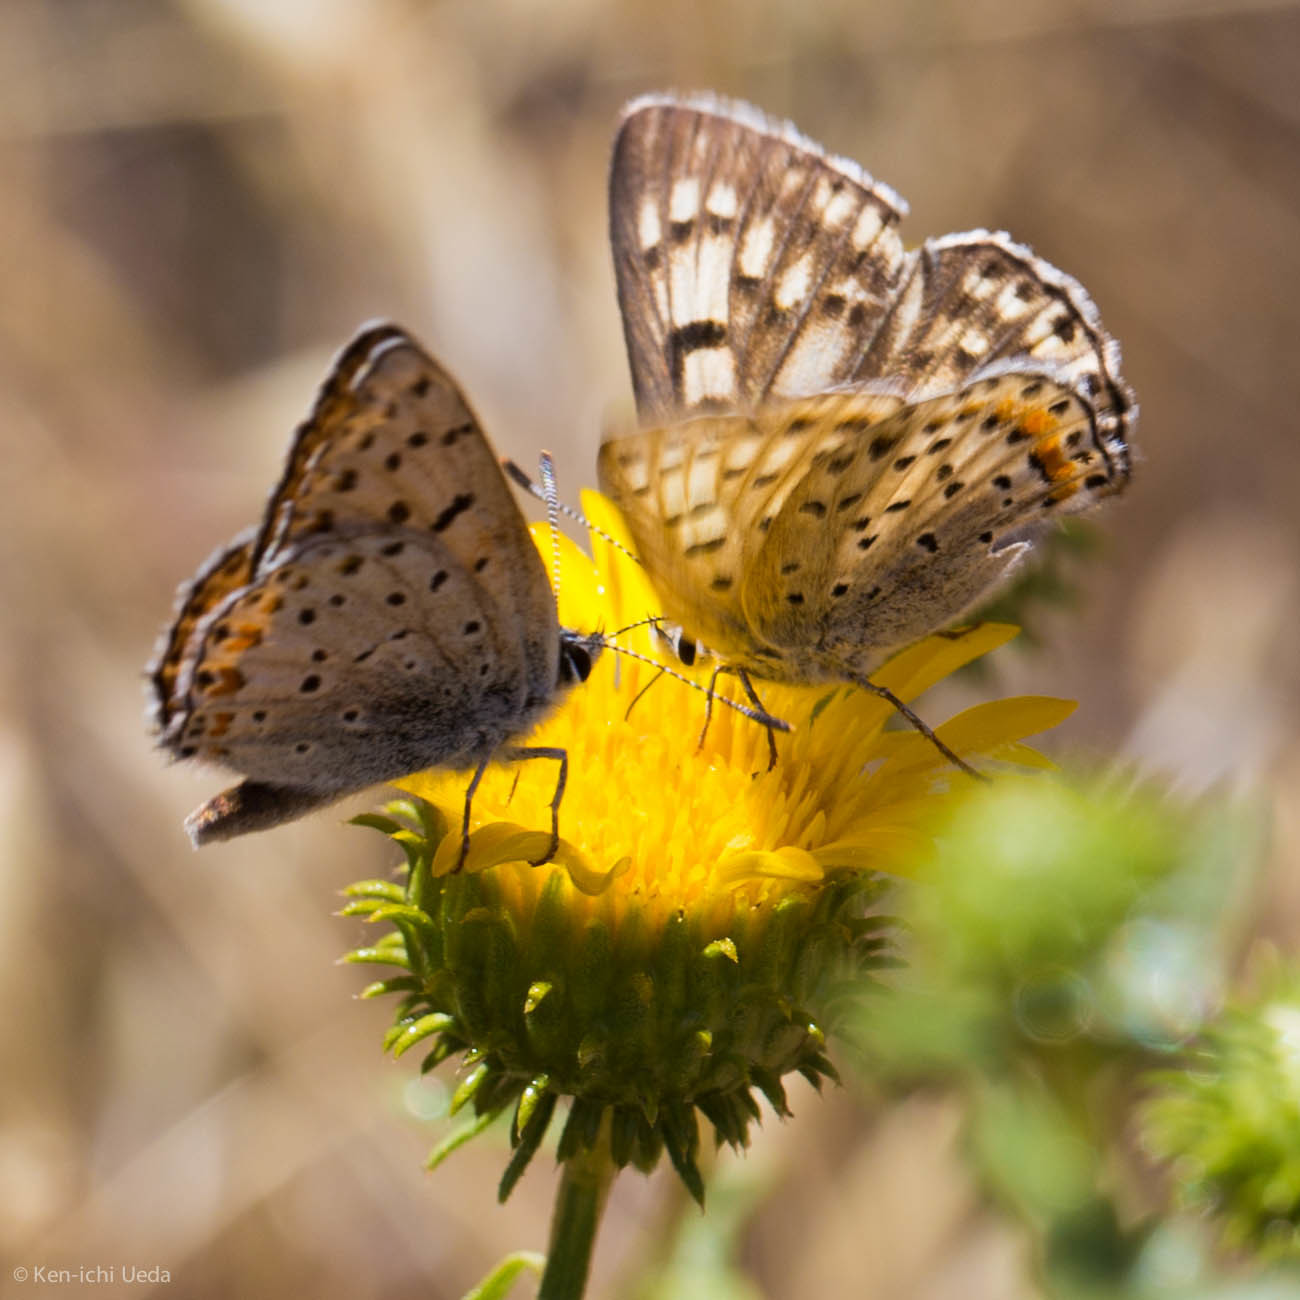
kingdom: Animalia
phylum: Arthropoda
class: Insecta
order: Lepidoptera
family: Lycaenidae
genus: Tharsalea
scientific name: Tharsalea gorgon
